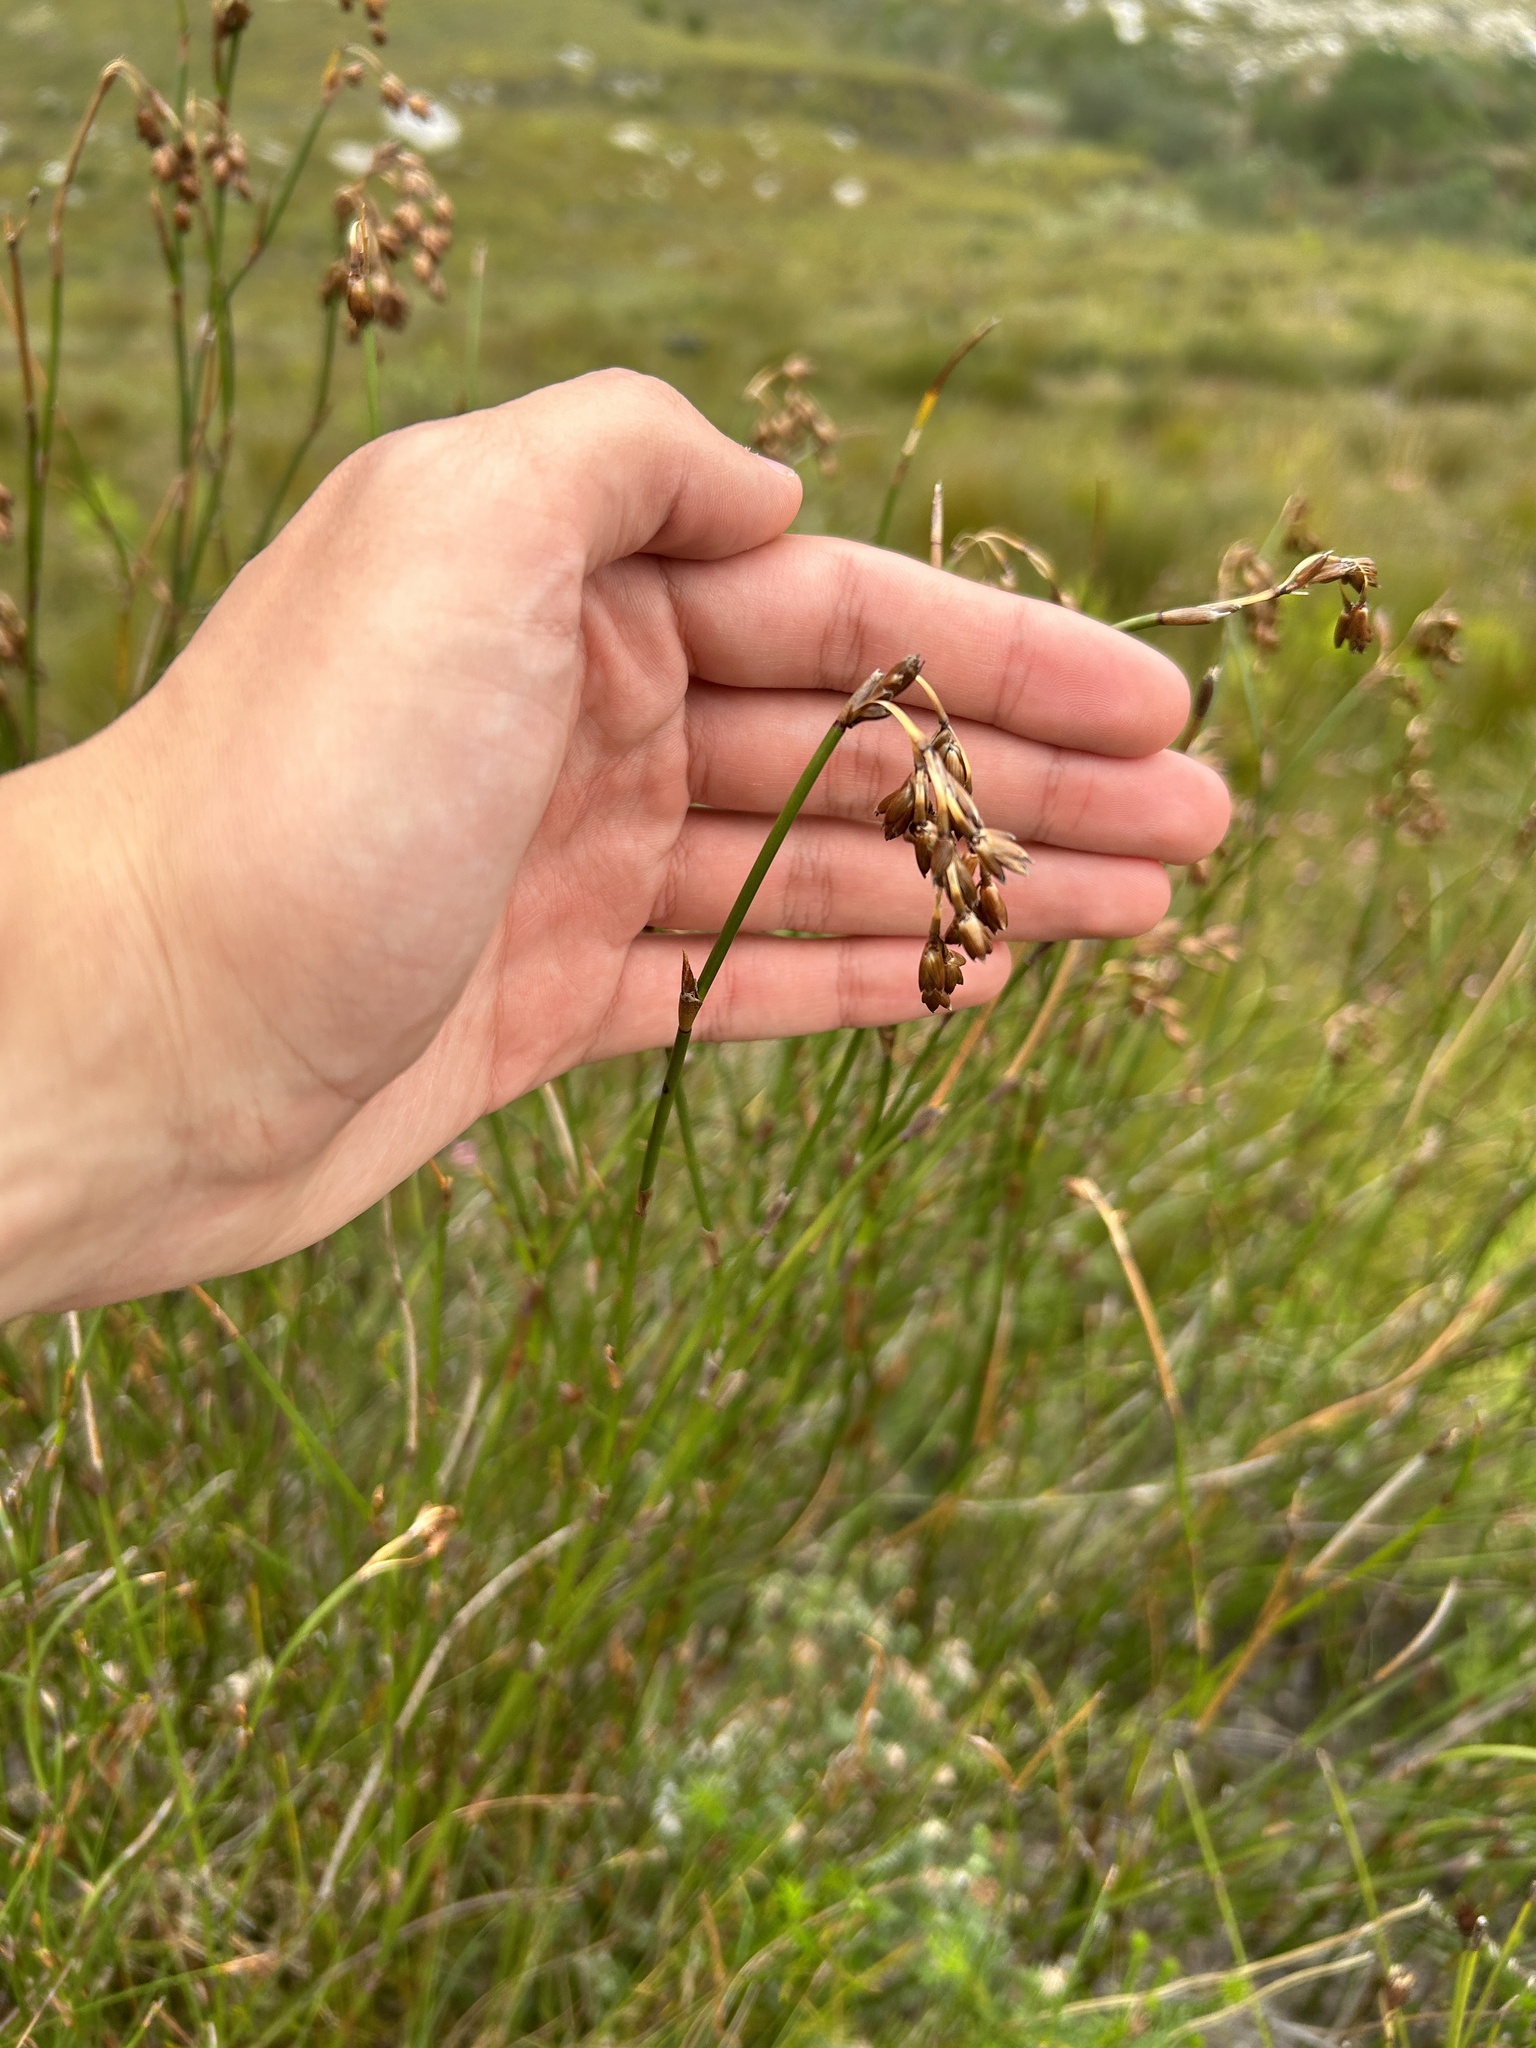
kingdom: Plantae
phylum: Tracheophyta
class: Liliopsida
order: Poales
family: Restionaceae
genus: Restio
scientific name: Restio egregius
